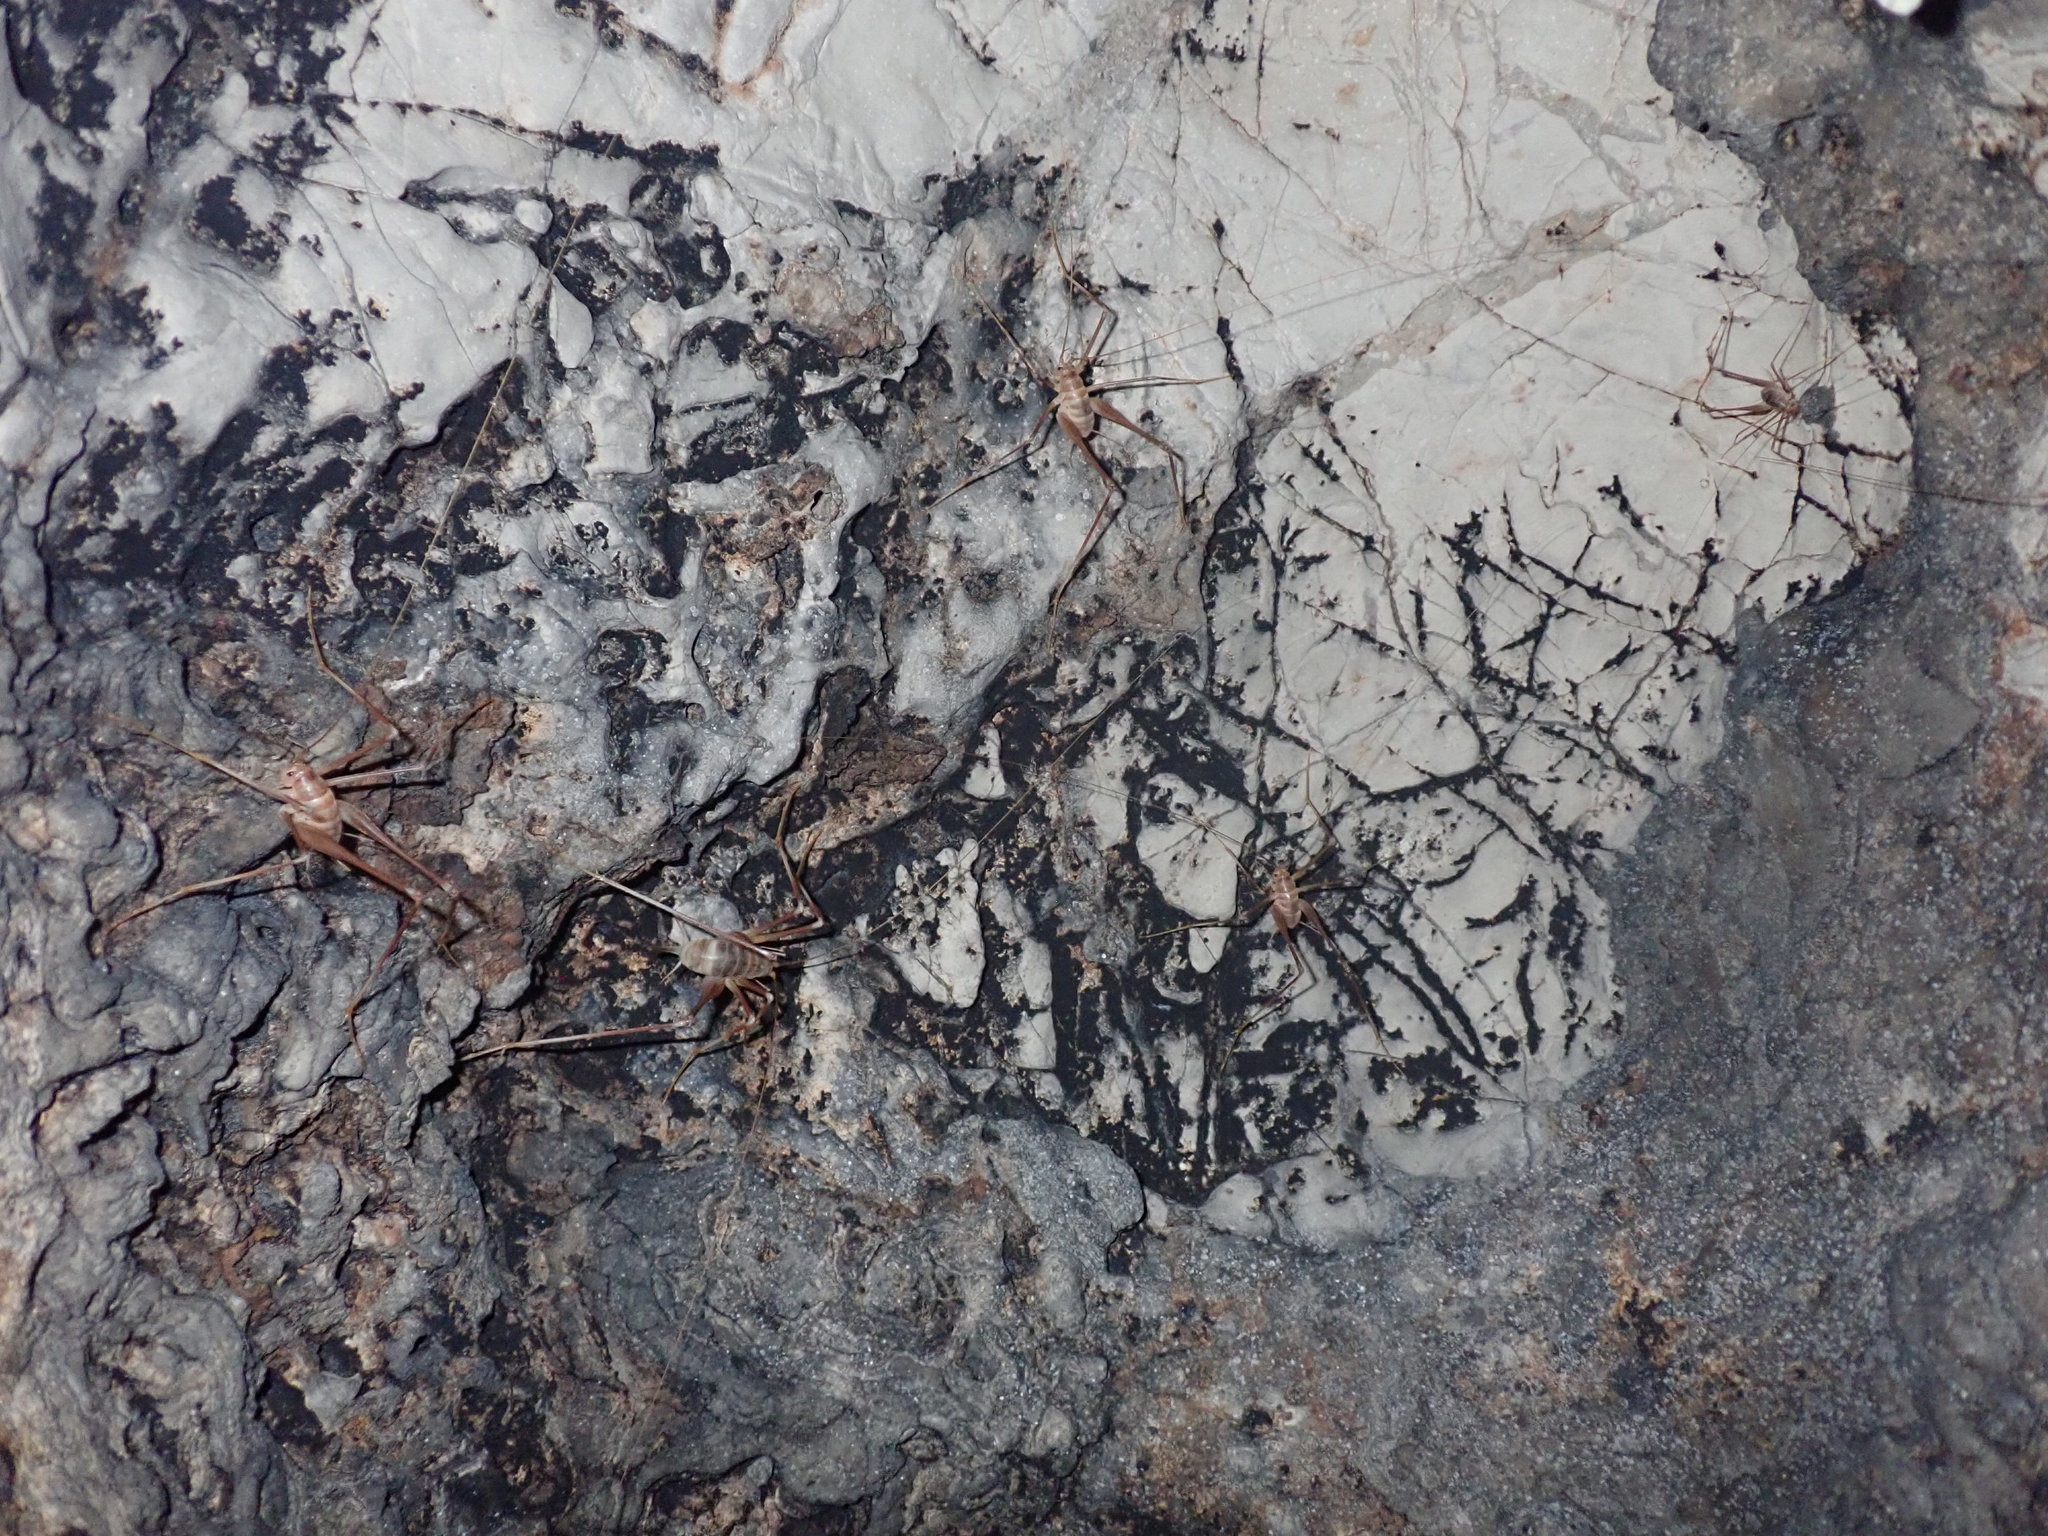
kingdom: Animalia
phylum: Arthropoda
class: Insecta
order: Orthoptera
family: Rhaphidophoridae
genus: Dolichopoda
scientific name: Dolichopoda araneiformis
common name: Spidery cave-cricket
